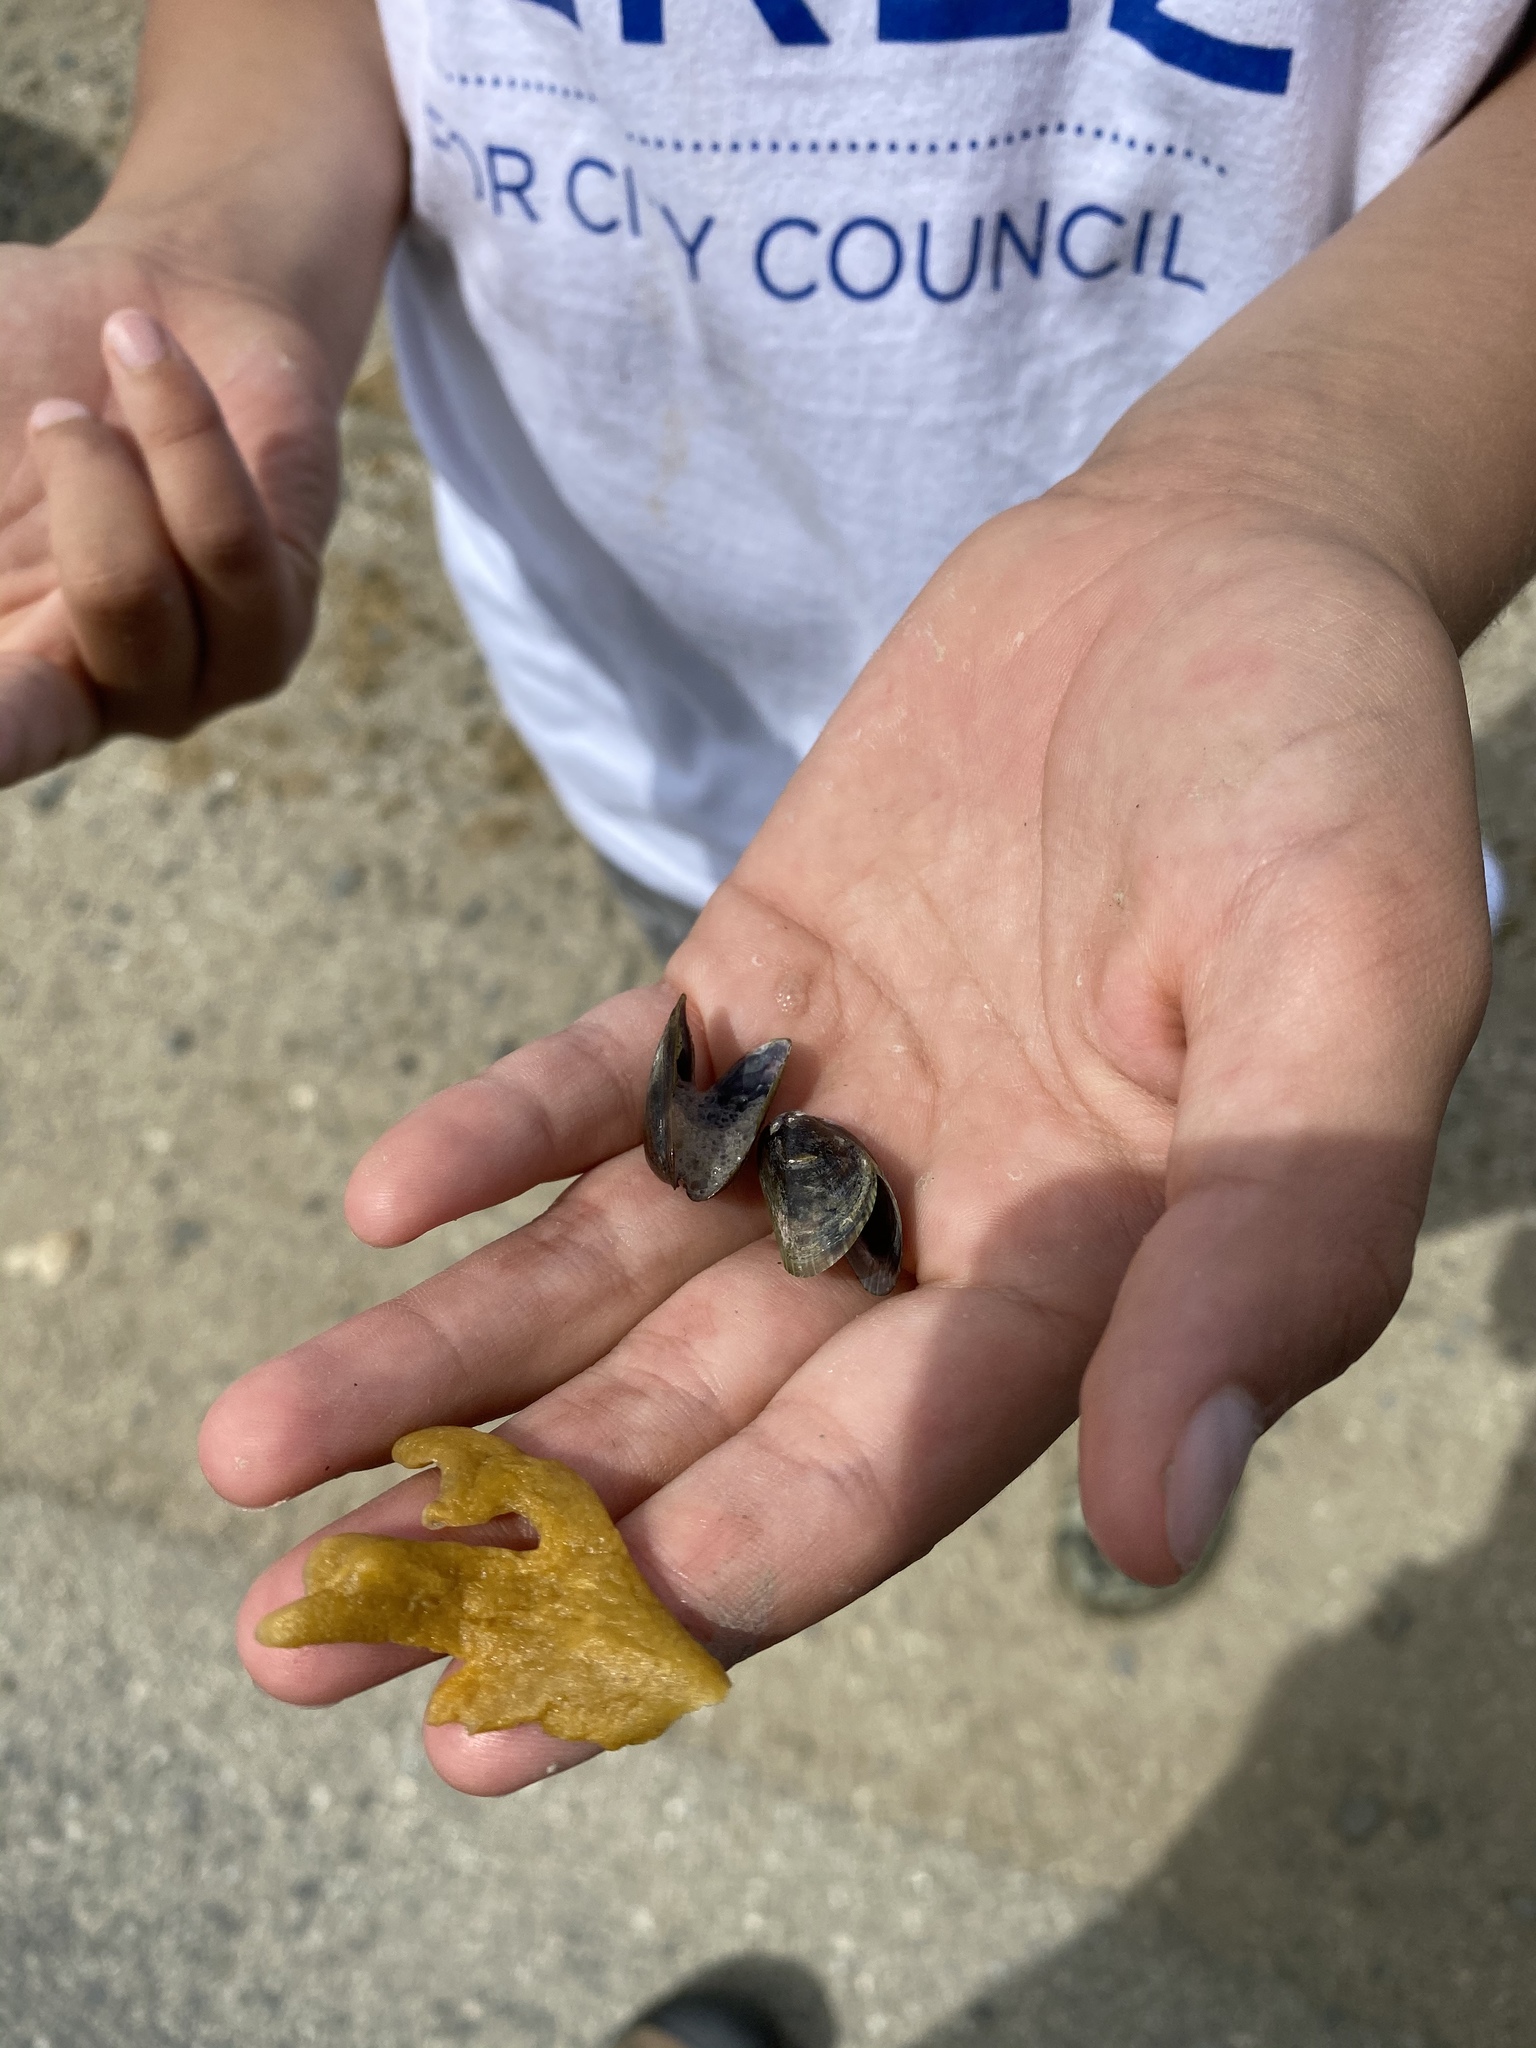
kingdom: Animalia
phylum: Mollusca
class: Bivalvia
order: Mytilida
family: Mytilidae
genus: Arcuatula
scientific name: Arcuatula senhousia
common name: Asian mussel
